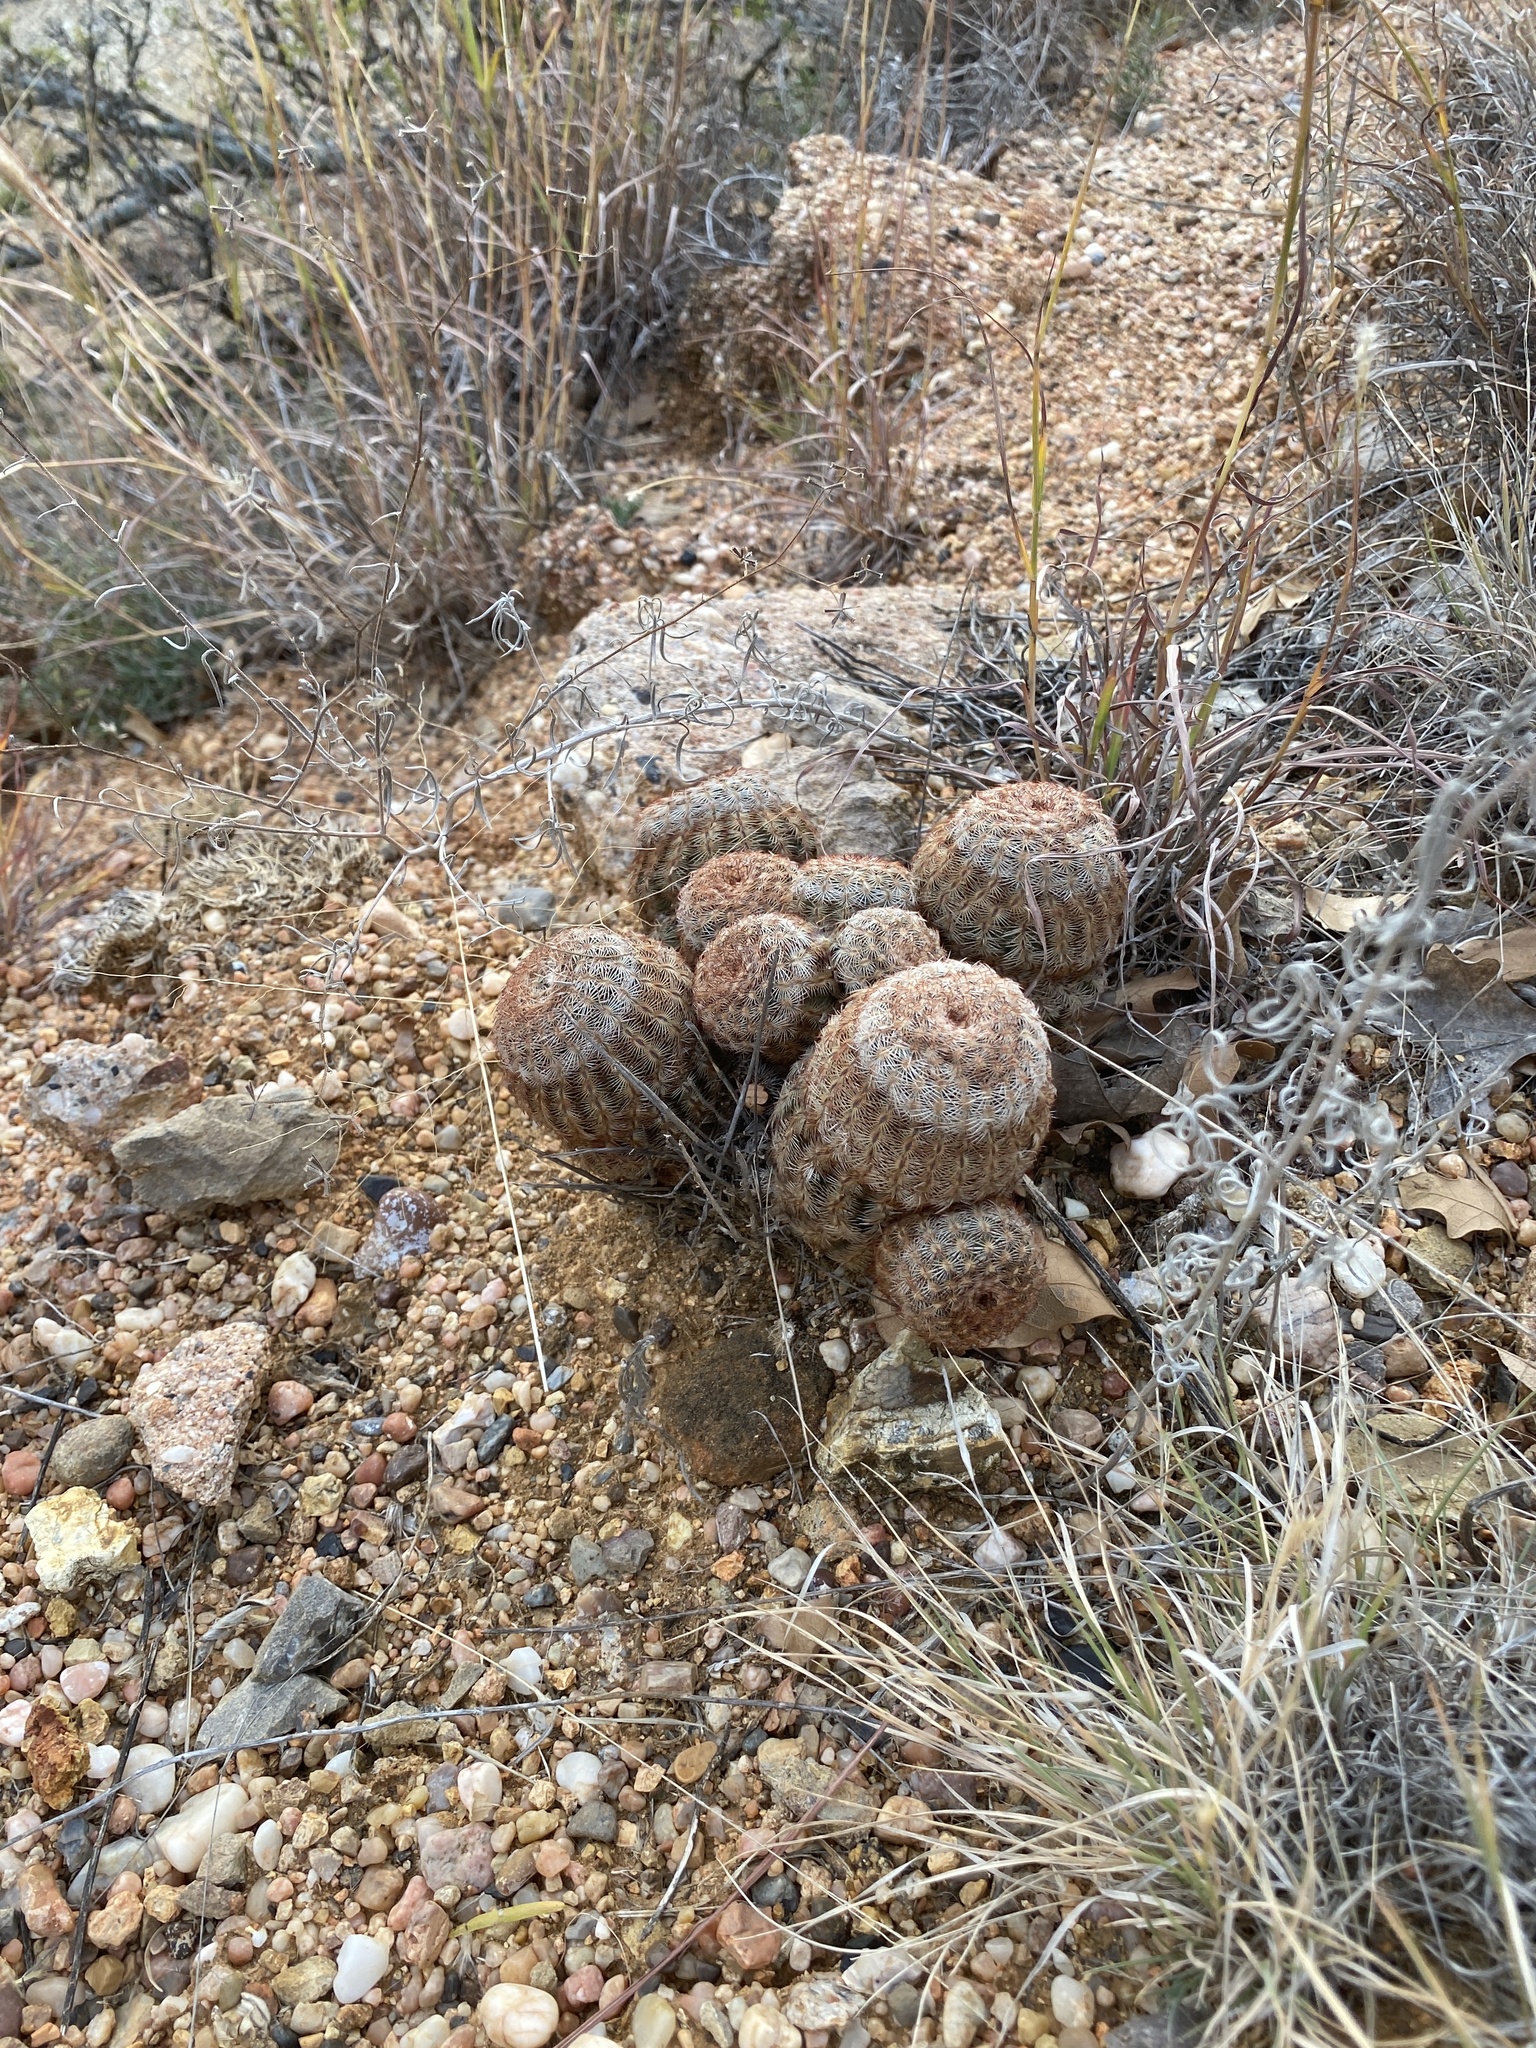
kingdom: Plantae
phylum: Tracheophyta
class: Magnoliopsida
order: Caryophyllales
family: Cactaceae
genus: Echinocereus
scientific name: Echinocereus reichenbachii
